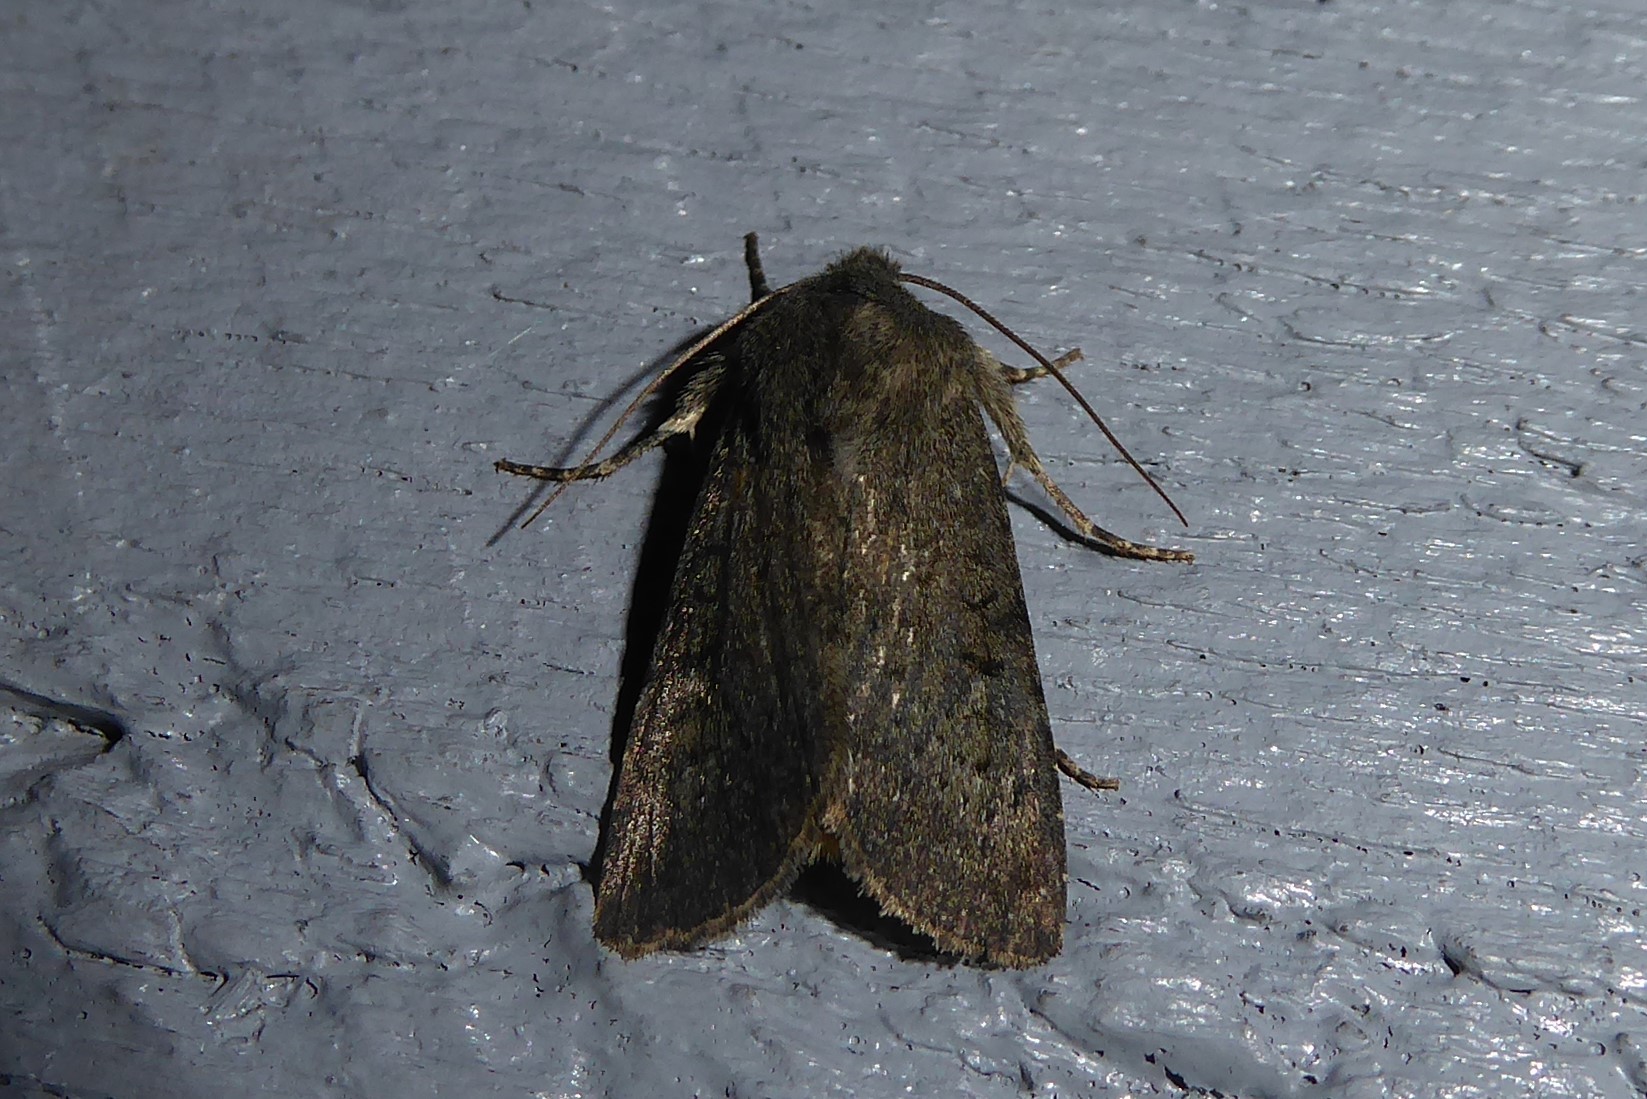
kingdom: Animalia
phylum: Arthropoda
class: Insecta
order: Lepidoptera
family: Noctuidae
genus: Ichneutica
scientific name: Ichneutica moderata
